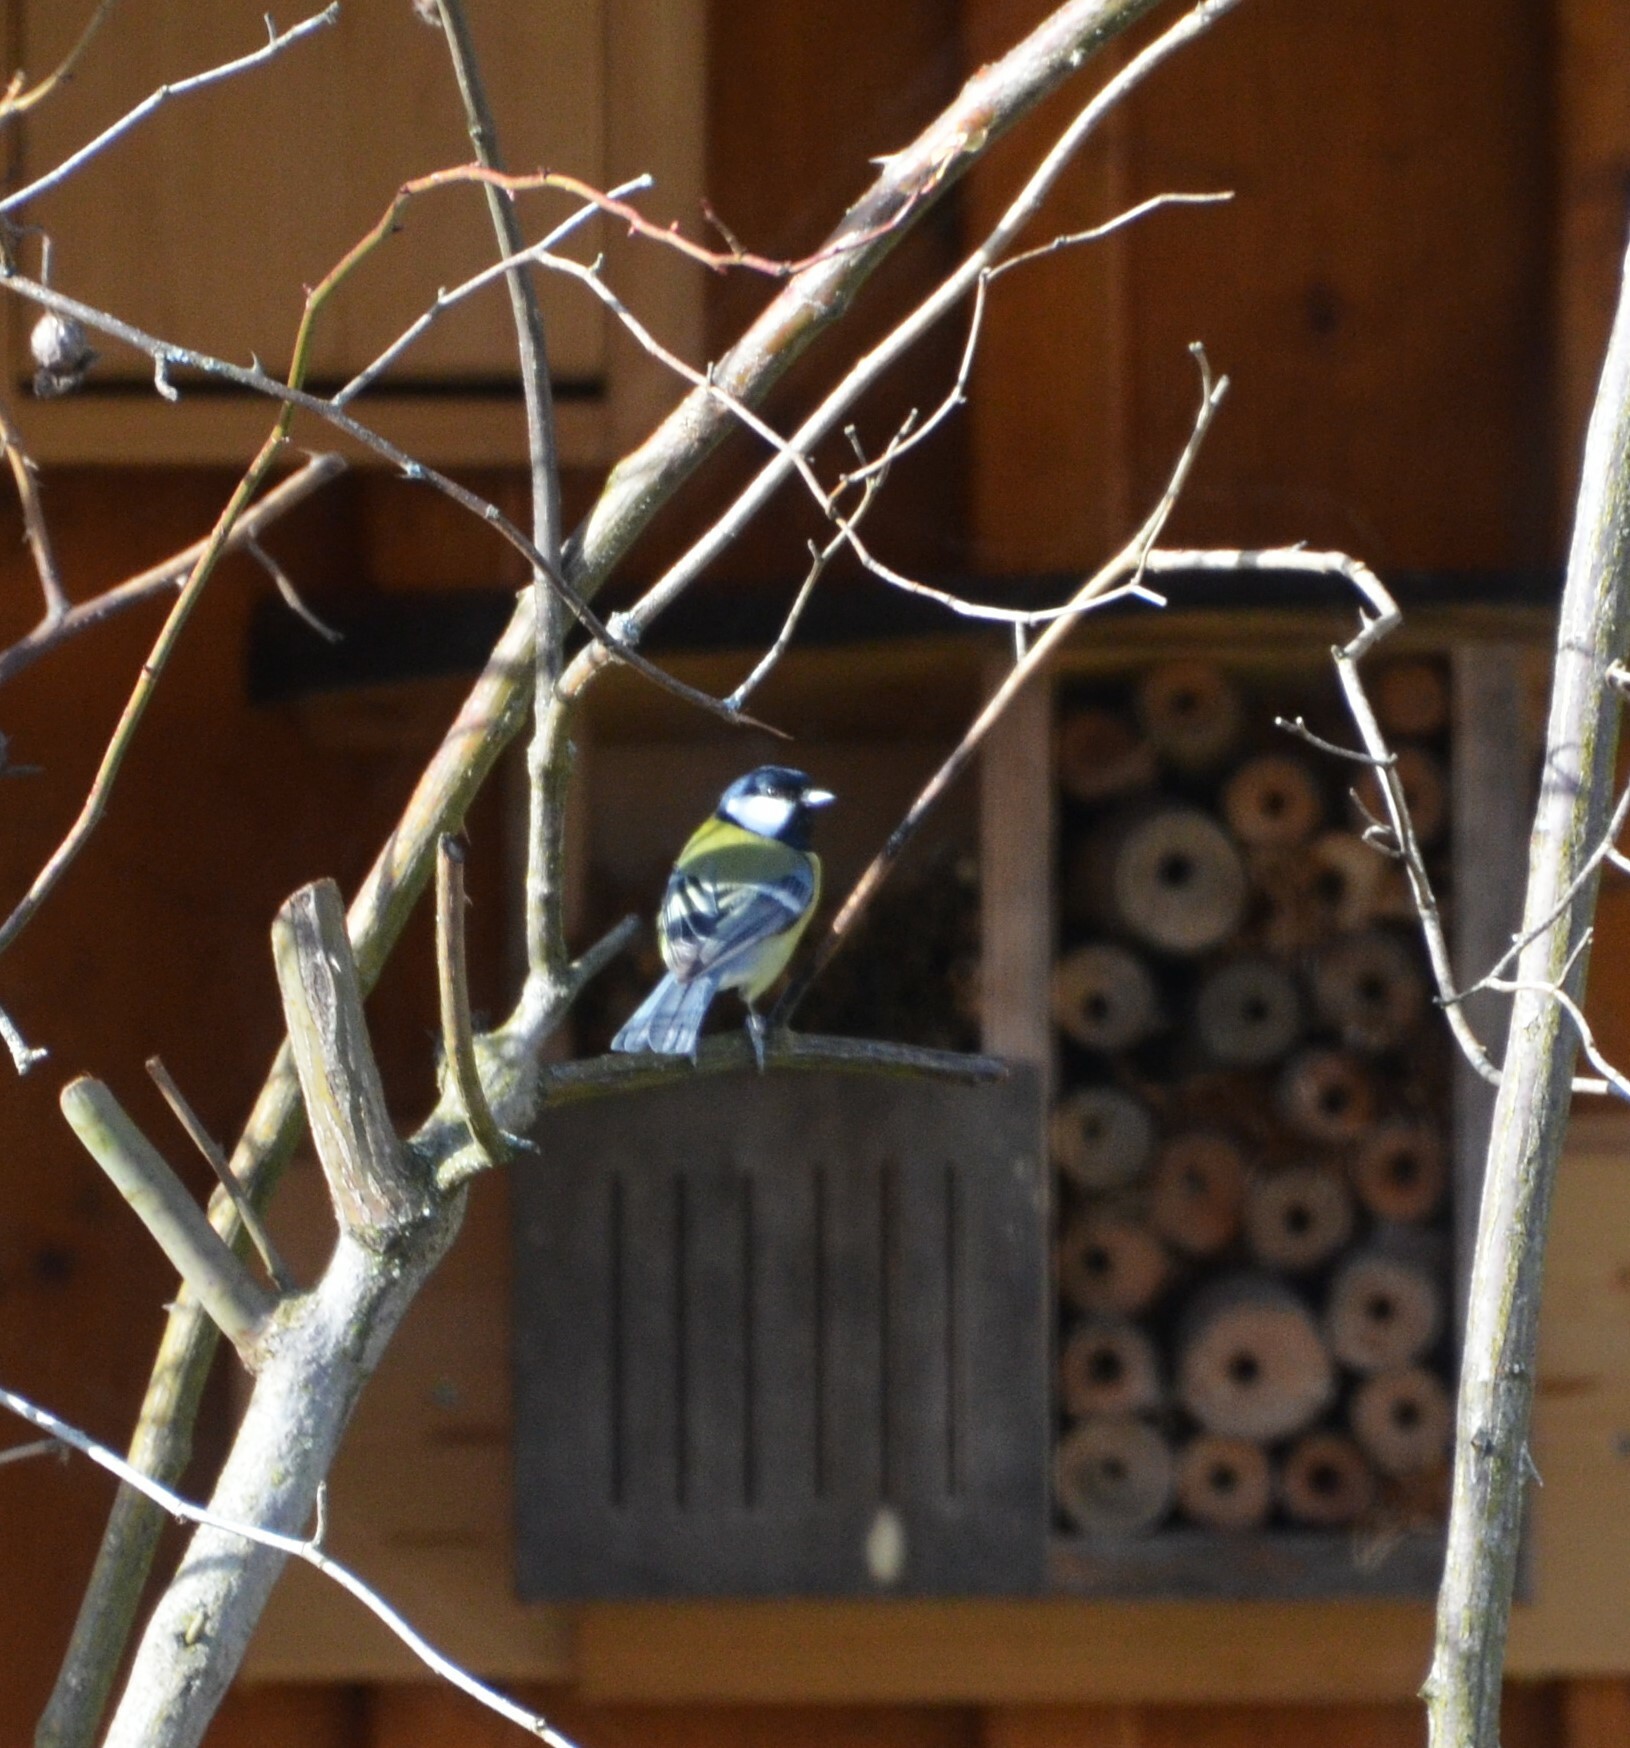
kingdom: Animalia
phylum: Chordata
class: Aves
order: Passeriformes
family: Paridae
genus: Parus
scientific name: Parus major
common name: Great tit
